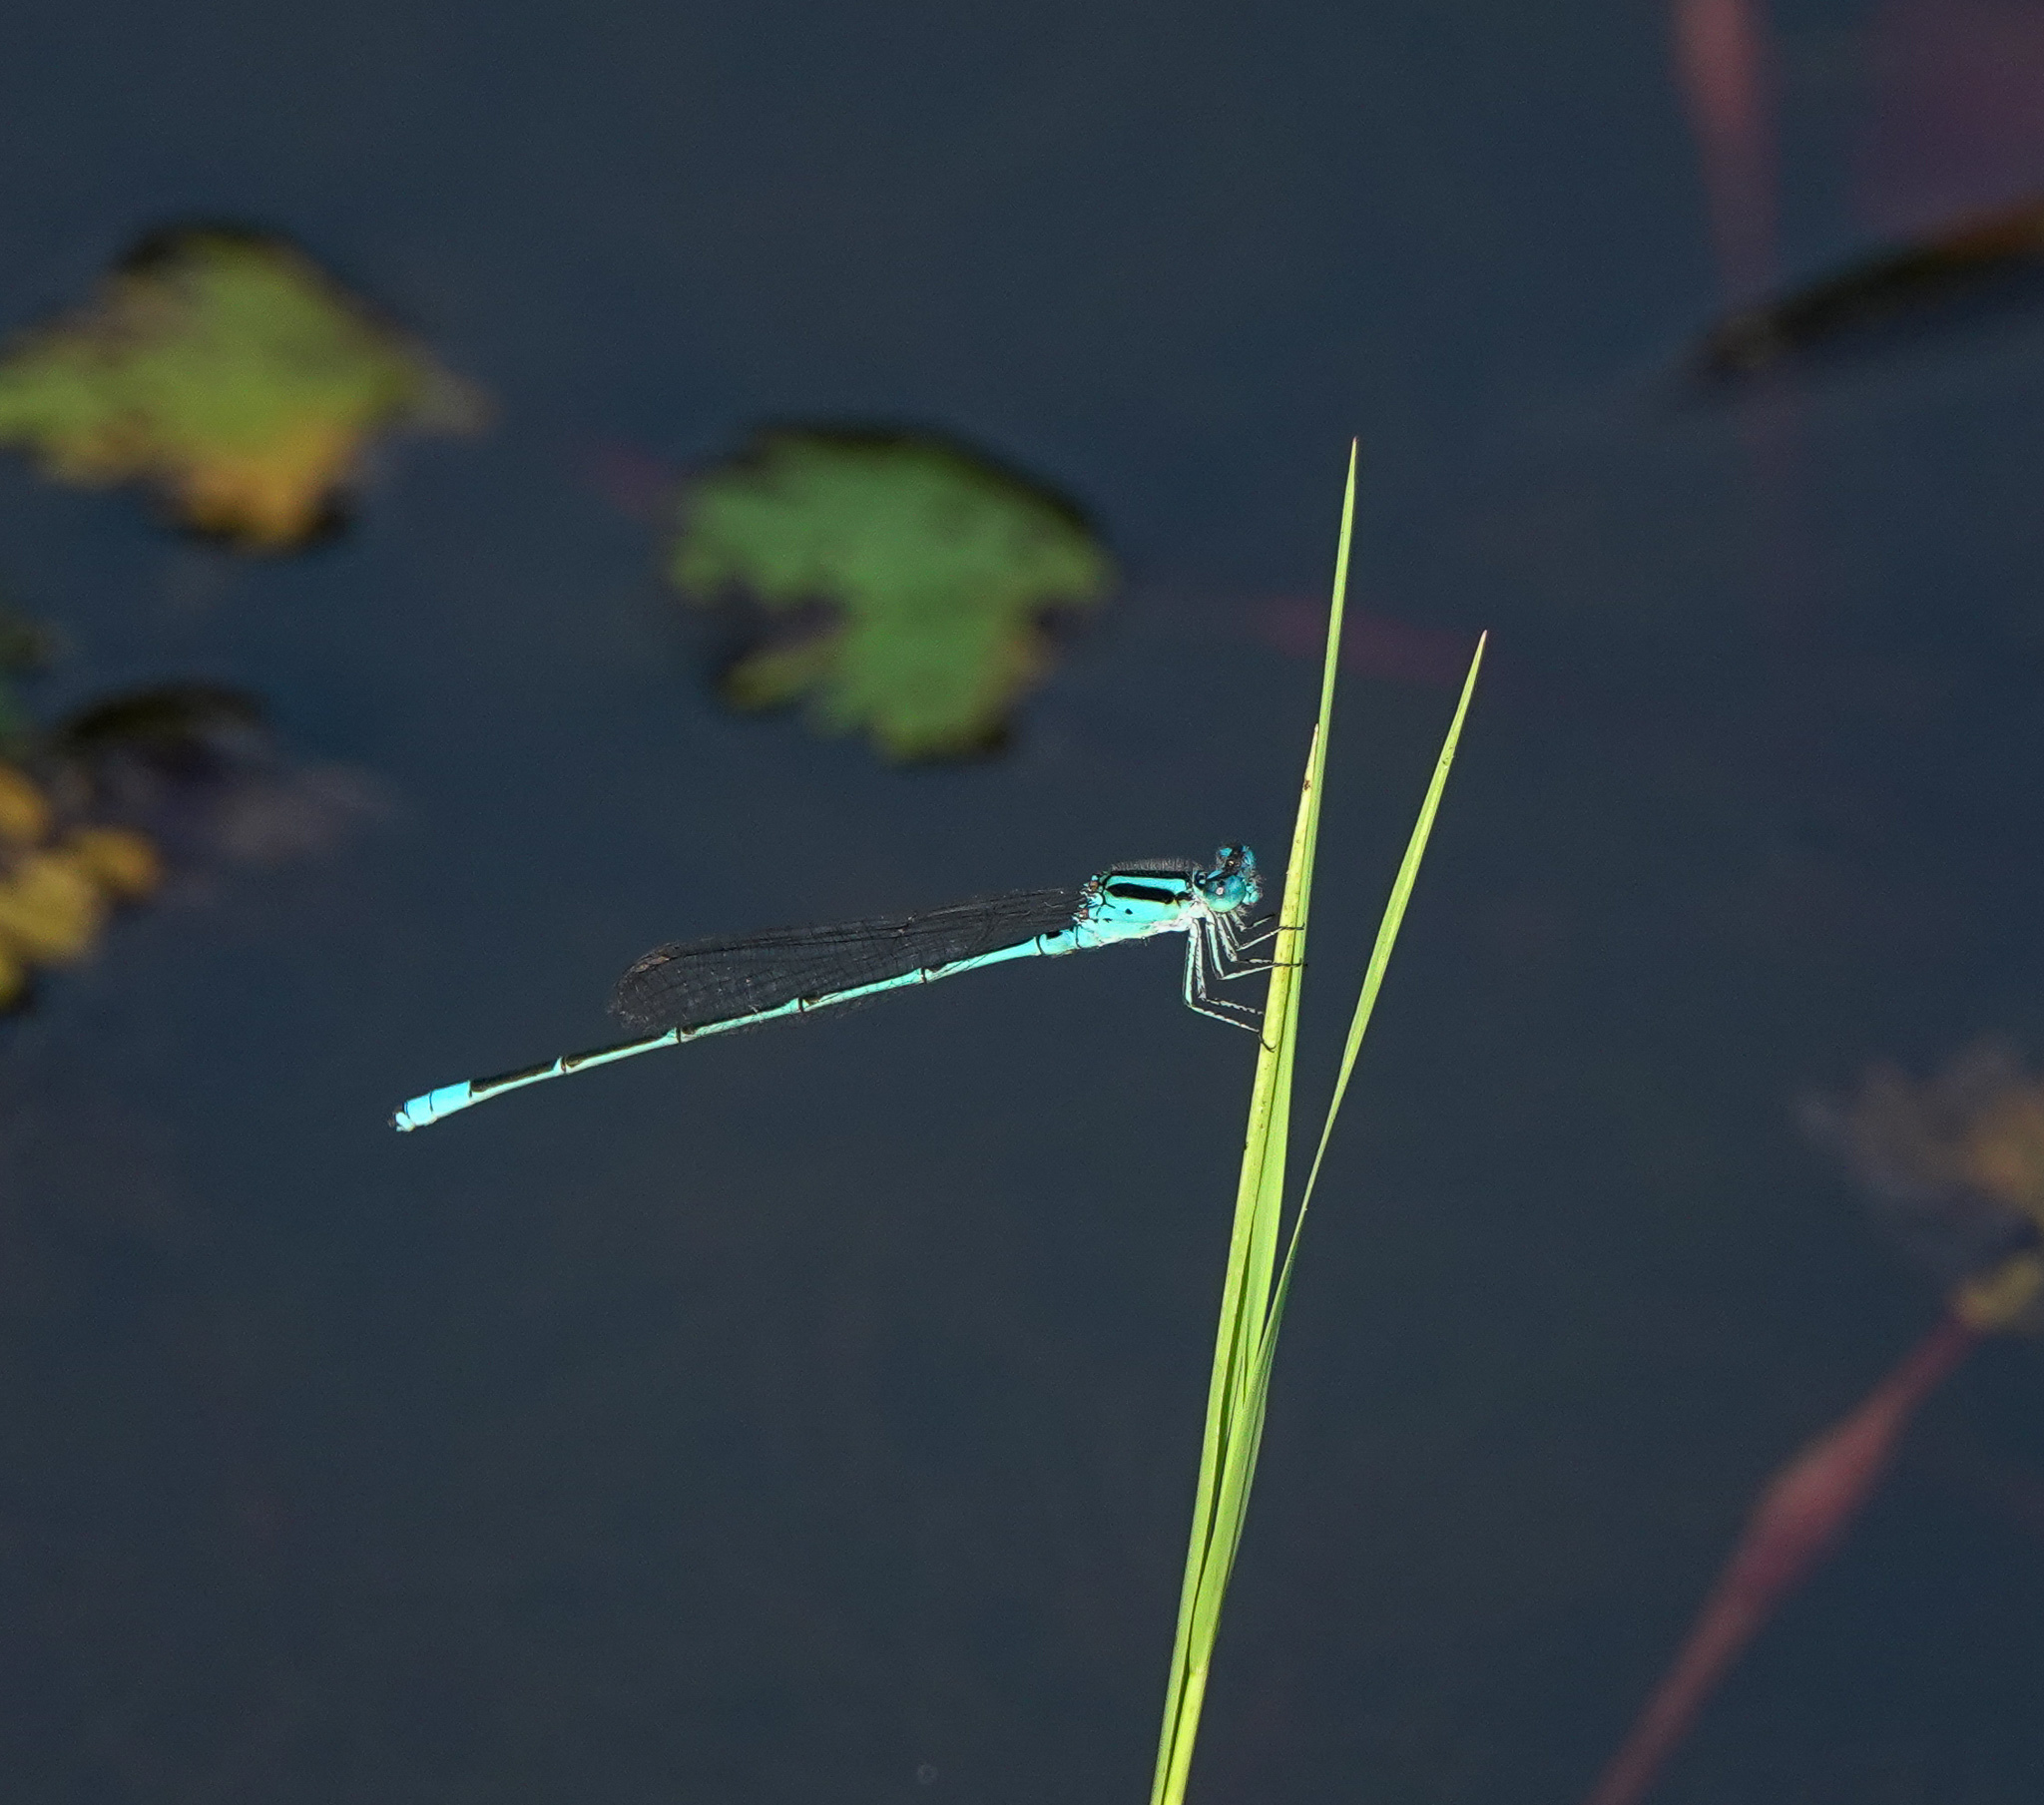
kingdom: Animalia
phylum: Arthropoda
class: Insecta
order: Odonata
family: Coenagrionidae
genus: Pseudagrion
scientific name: Pseudagrion australasiae
